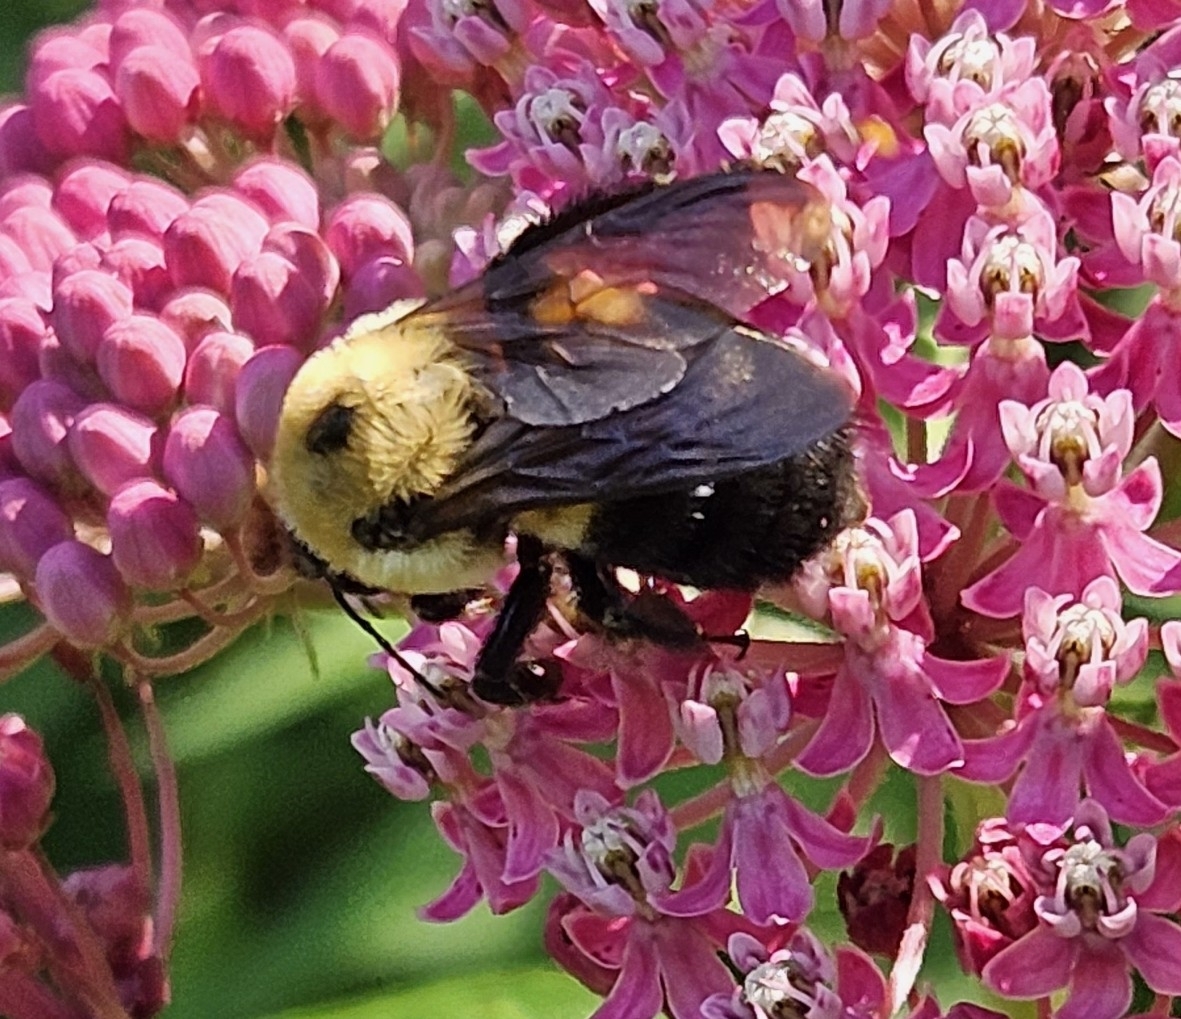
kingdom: Animalia
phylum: Arthropoda
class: Insecta
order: Hymenoptera
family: Apidae
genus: Bombus
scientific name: Bombus griseocollis
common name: Brown-belted bumble bee
